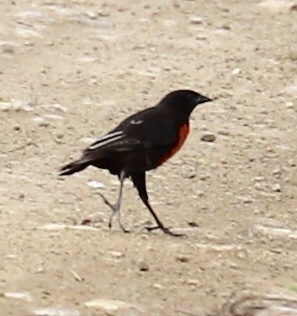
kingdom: Animalia
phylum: Chordata
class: Aves
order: Passeriformes
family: Icteridae
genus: Sturnella
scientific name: Sturnella militaris
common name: Red-breasted blackbird
